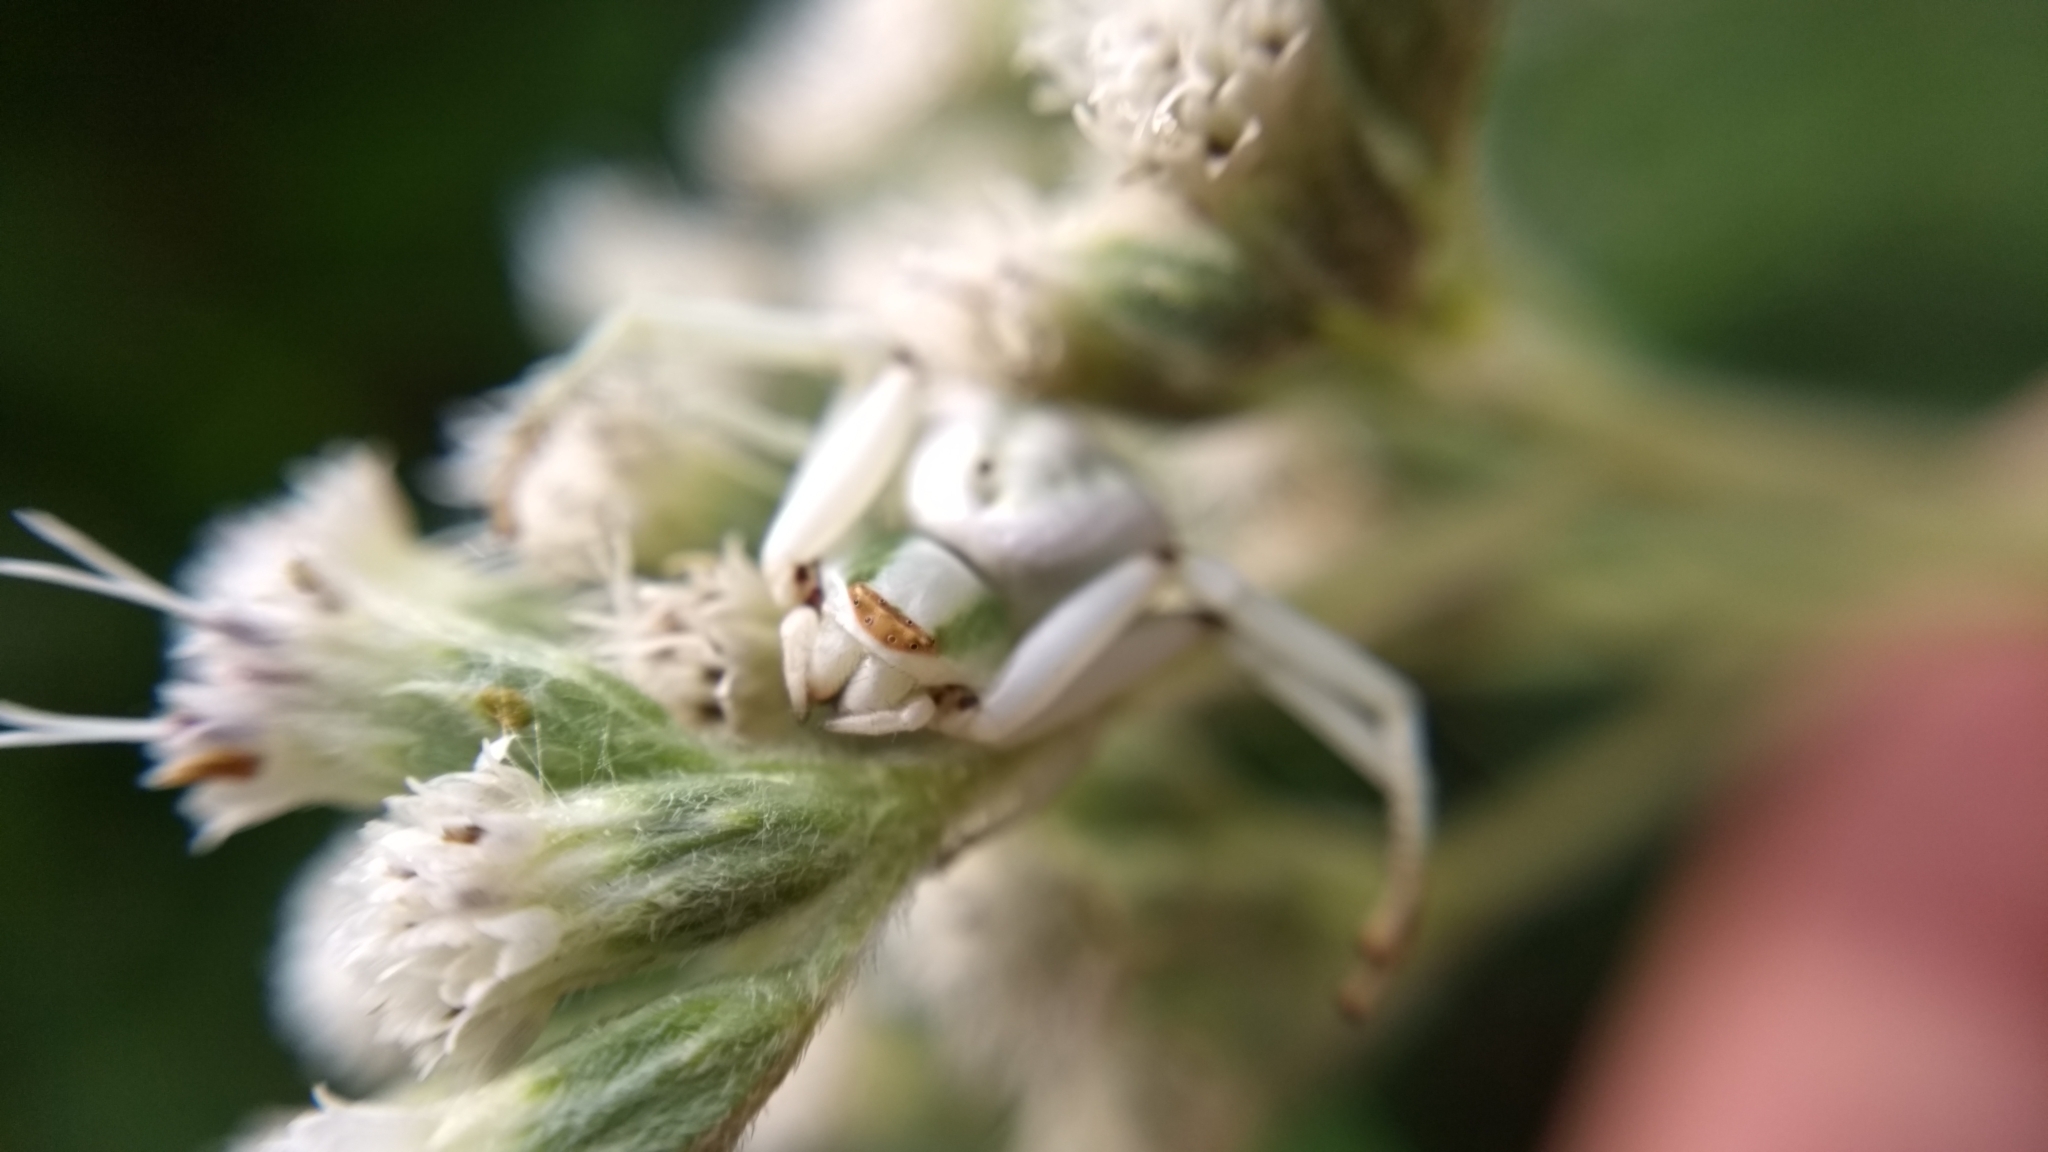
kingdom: Animalia
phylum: Arthropoda
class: Arachnida
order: Araneae
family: Thomisidae
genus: Misumenoides
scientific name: Misumenoides formosipes
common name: White-banded crab spider
